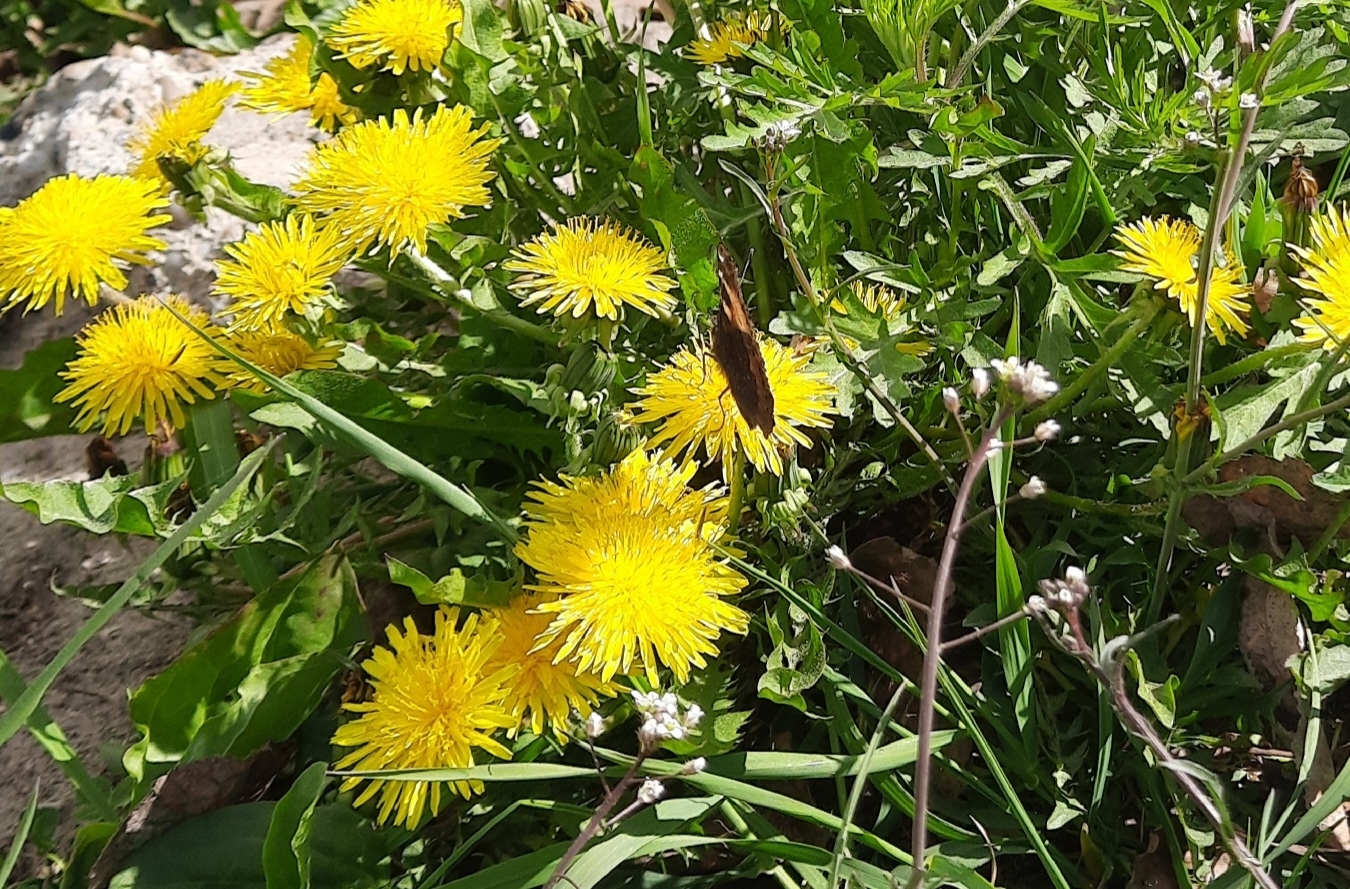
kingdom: Plantae
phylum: Tracheophyta
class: Magnoliopsida
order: Asterales
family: Asteraceae
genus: Taraxacum
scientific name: Taraxacum officinale
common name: Common dandelion
